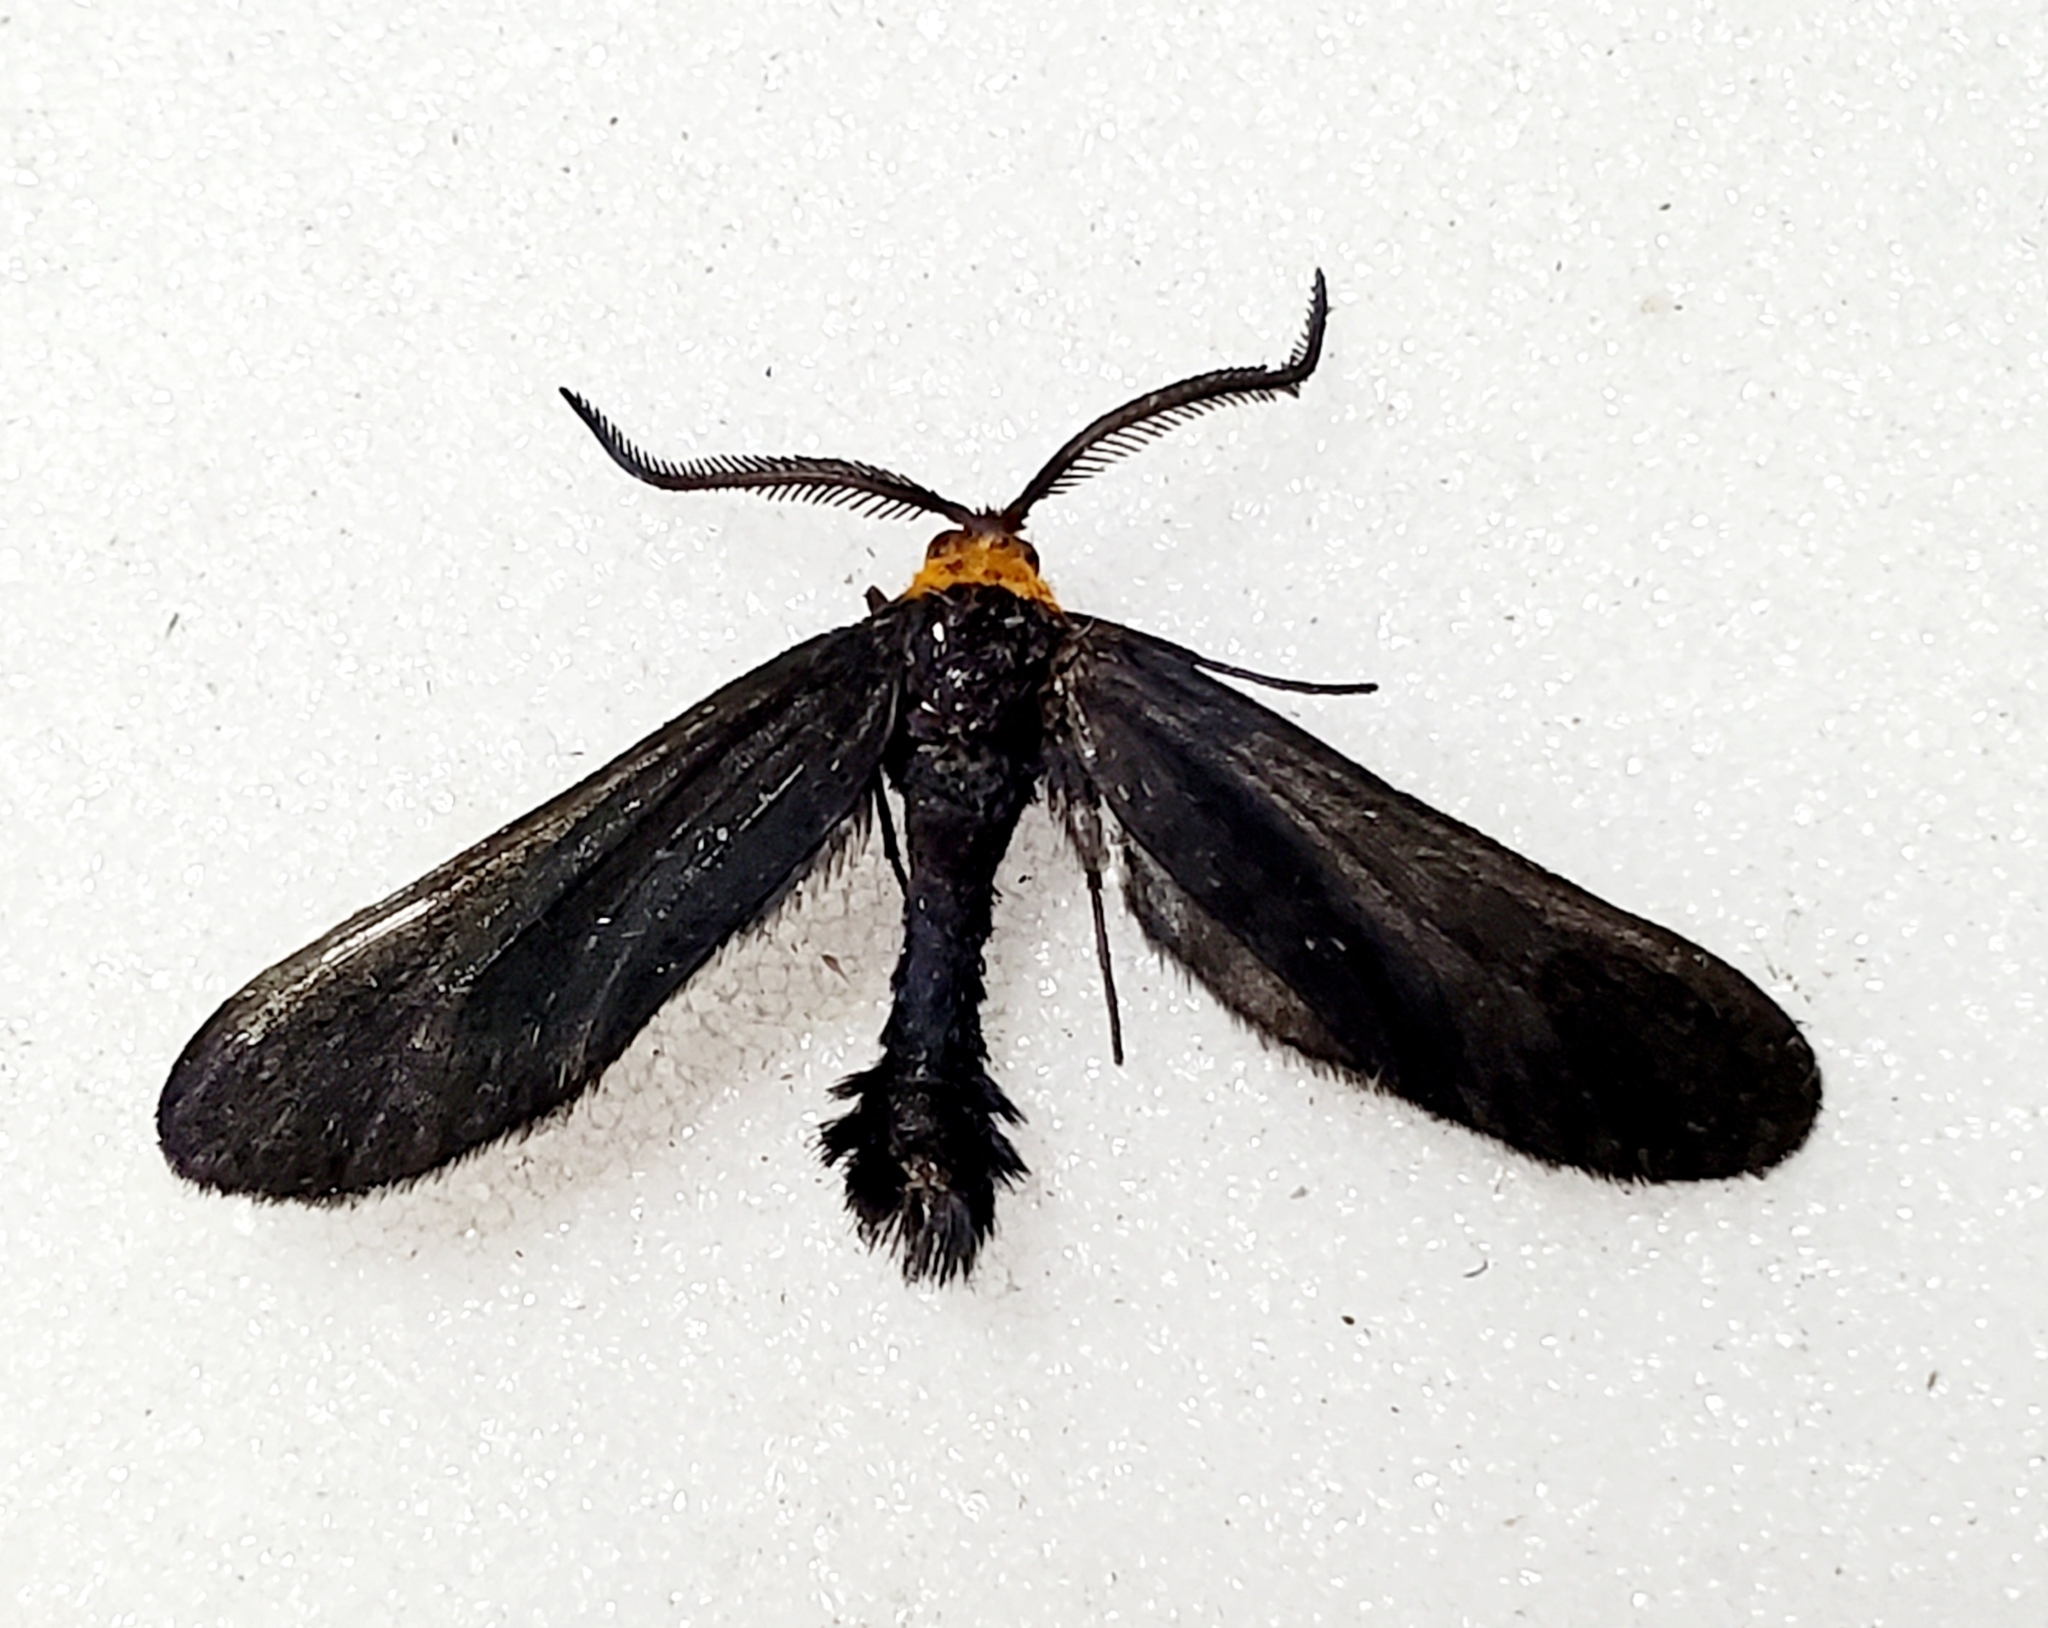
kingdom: Animalia
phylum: Arthropoda
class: Insecta
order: Lepidoptera
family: Zygaenidae
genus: Harrisina
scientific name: Harrisina americana
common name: Grapeleaf skeletonizer moth
